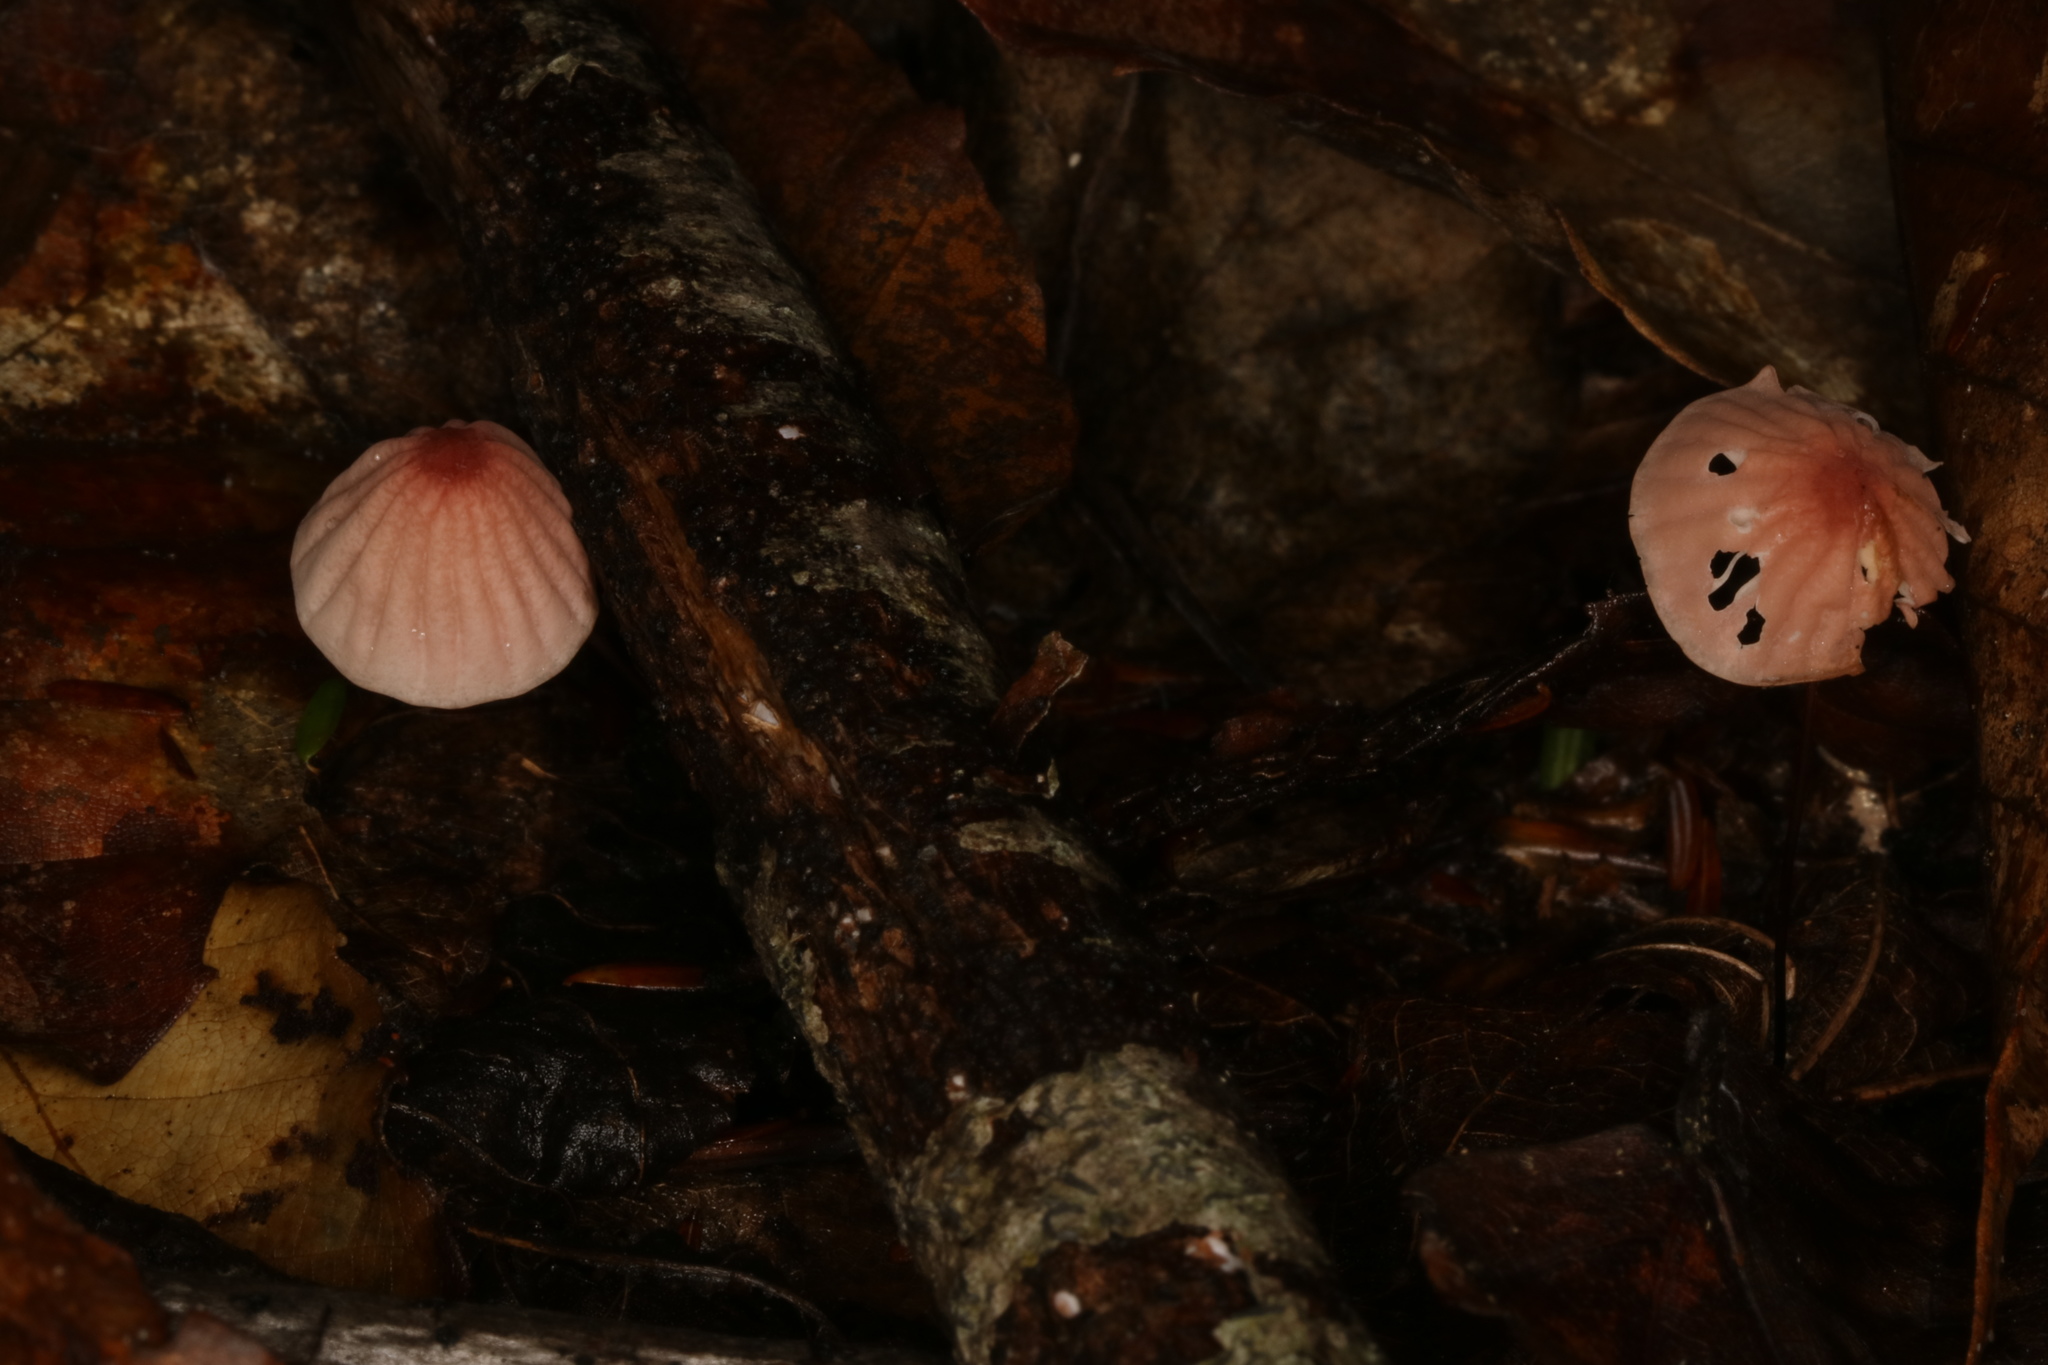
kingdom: Fungi
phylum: Basidiomycota
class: Agaricomycetes
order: Agaricales
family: Marasmiaceae
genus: Marasmius
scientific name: Marasmius pulcherripes
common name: Rosy parachute
